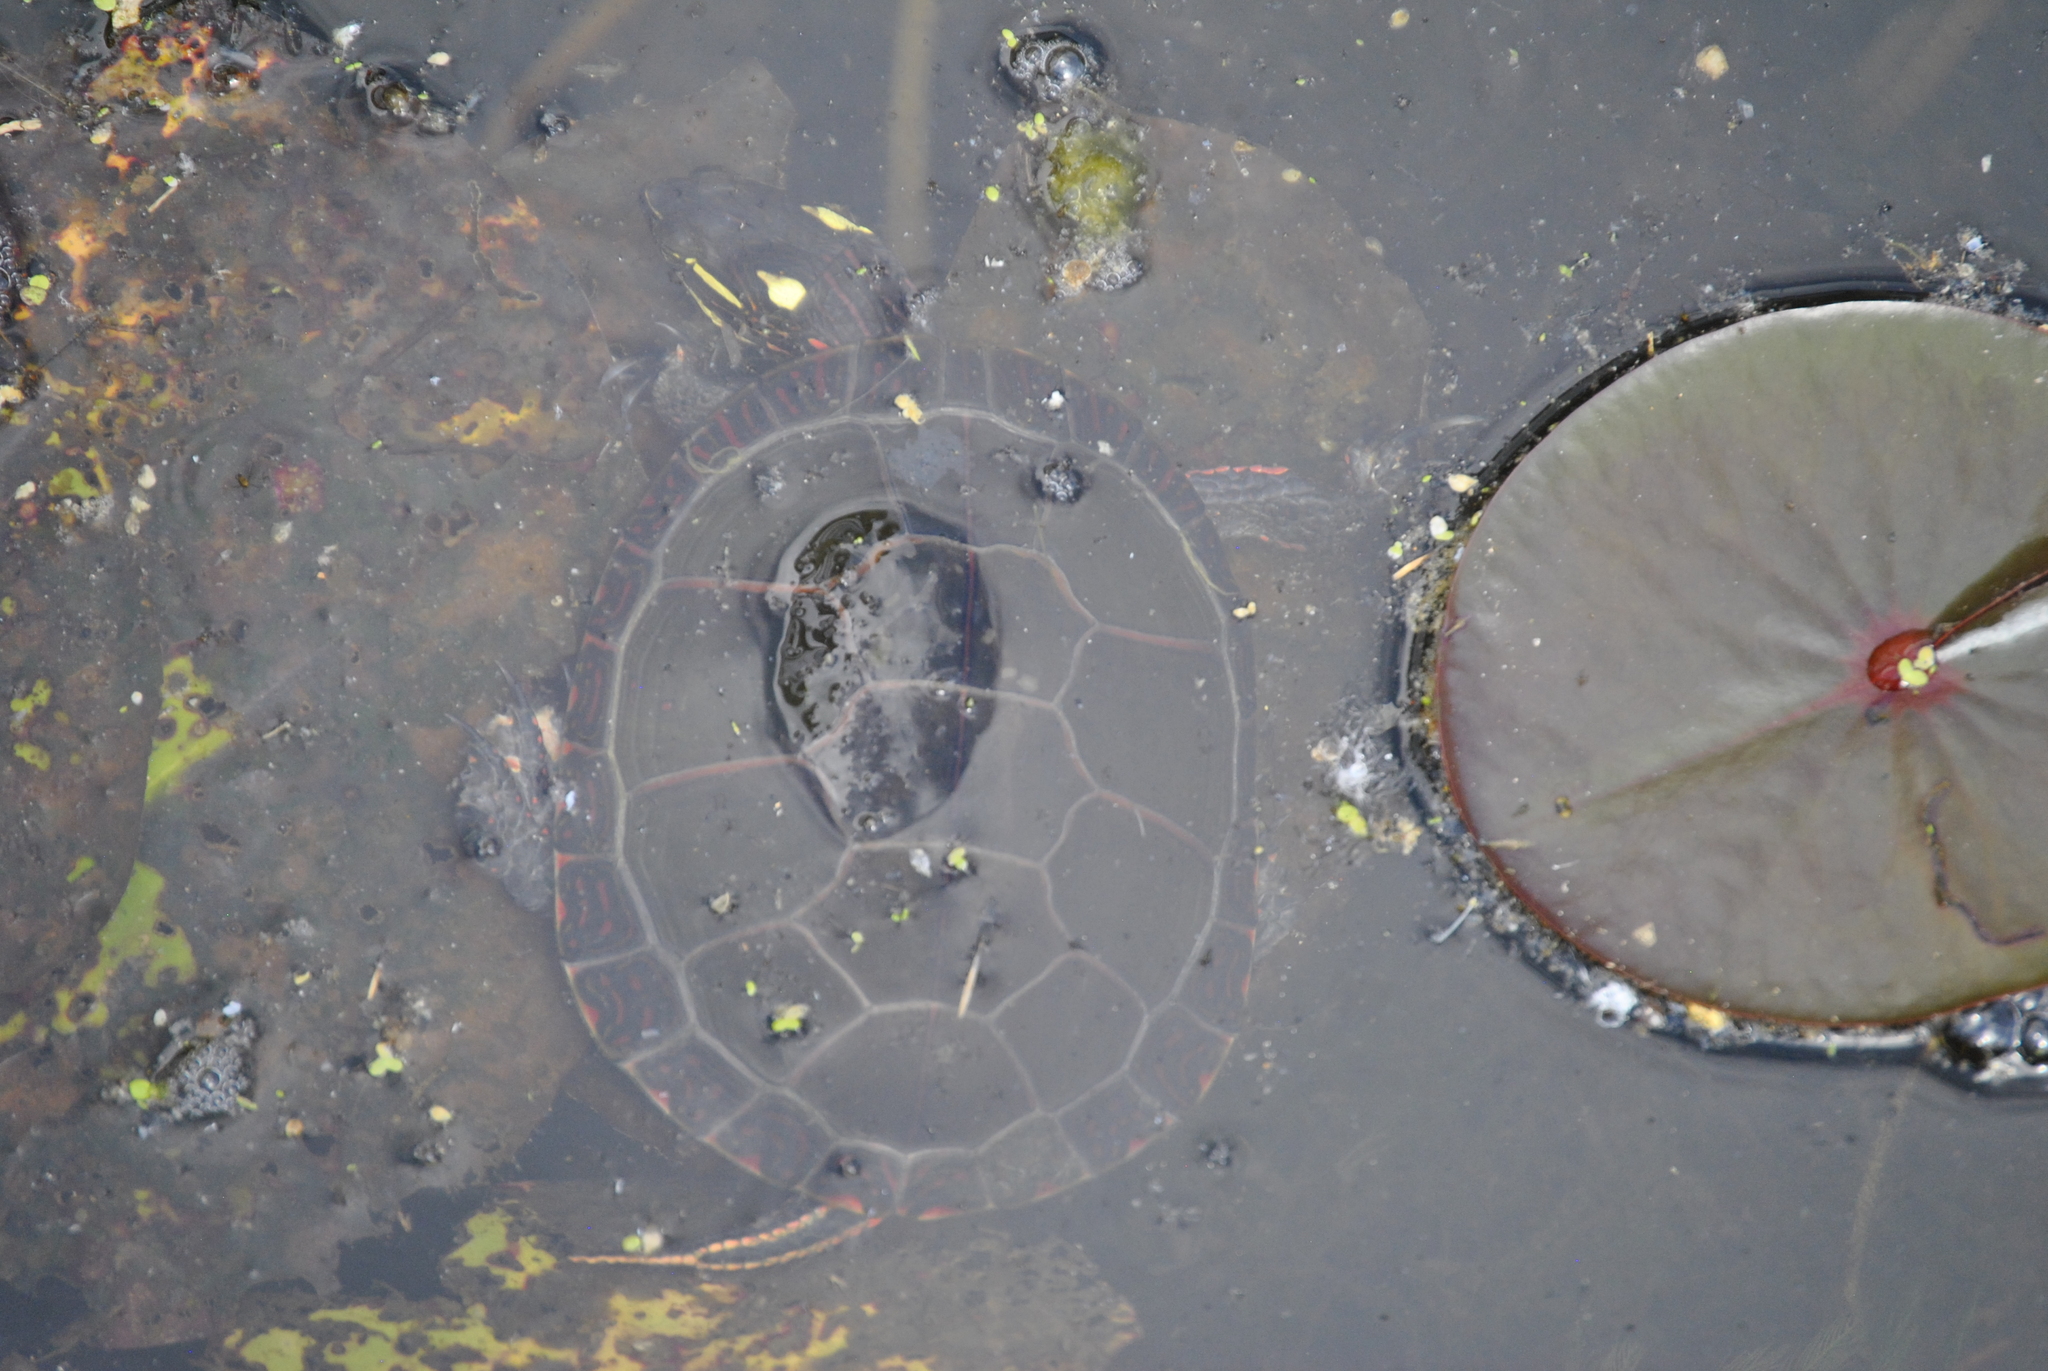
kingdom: Animalia
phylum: Chordata
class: Testudines
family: Emydidae
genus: Chrysemys
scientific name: Chrysemys picta
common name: Painted turtle
